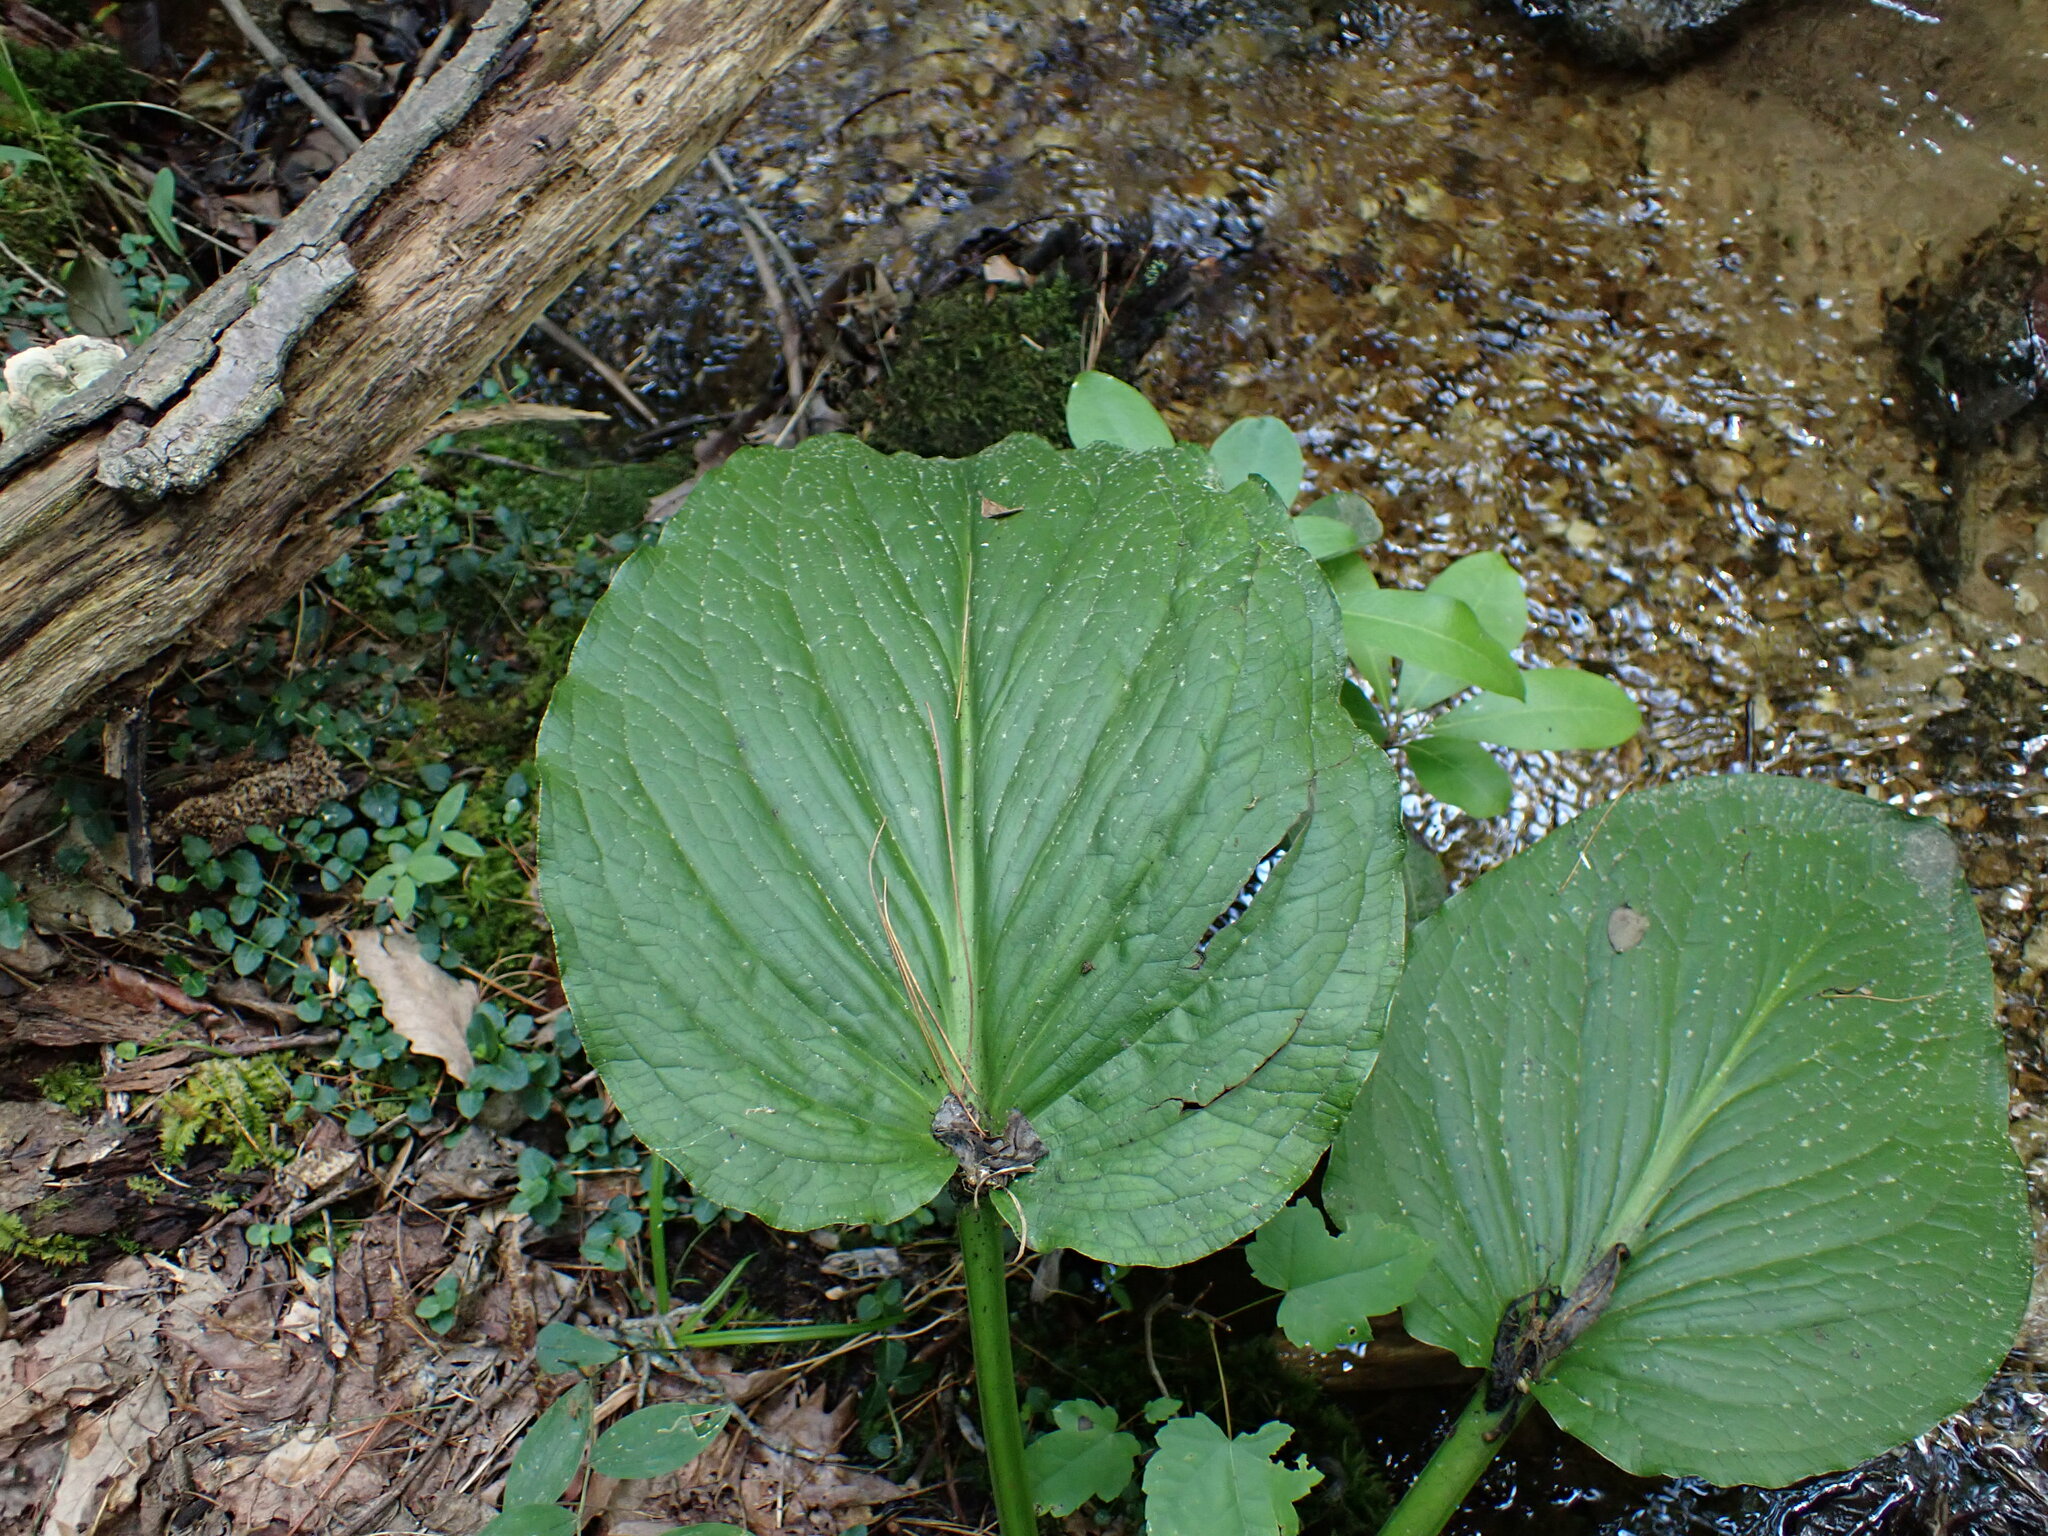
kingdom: Plantae
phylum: Tracheophyta
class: Liliopsida
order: Alismatales
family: Araceae
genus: Symplocarpus
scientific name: Symplocarpus foetidus
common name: Eastern skunk cabbage
